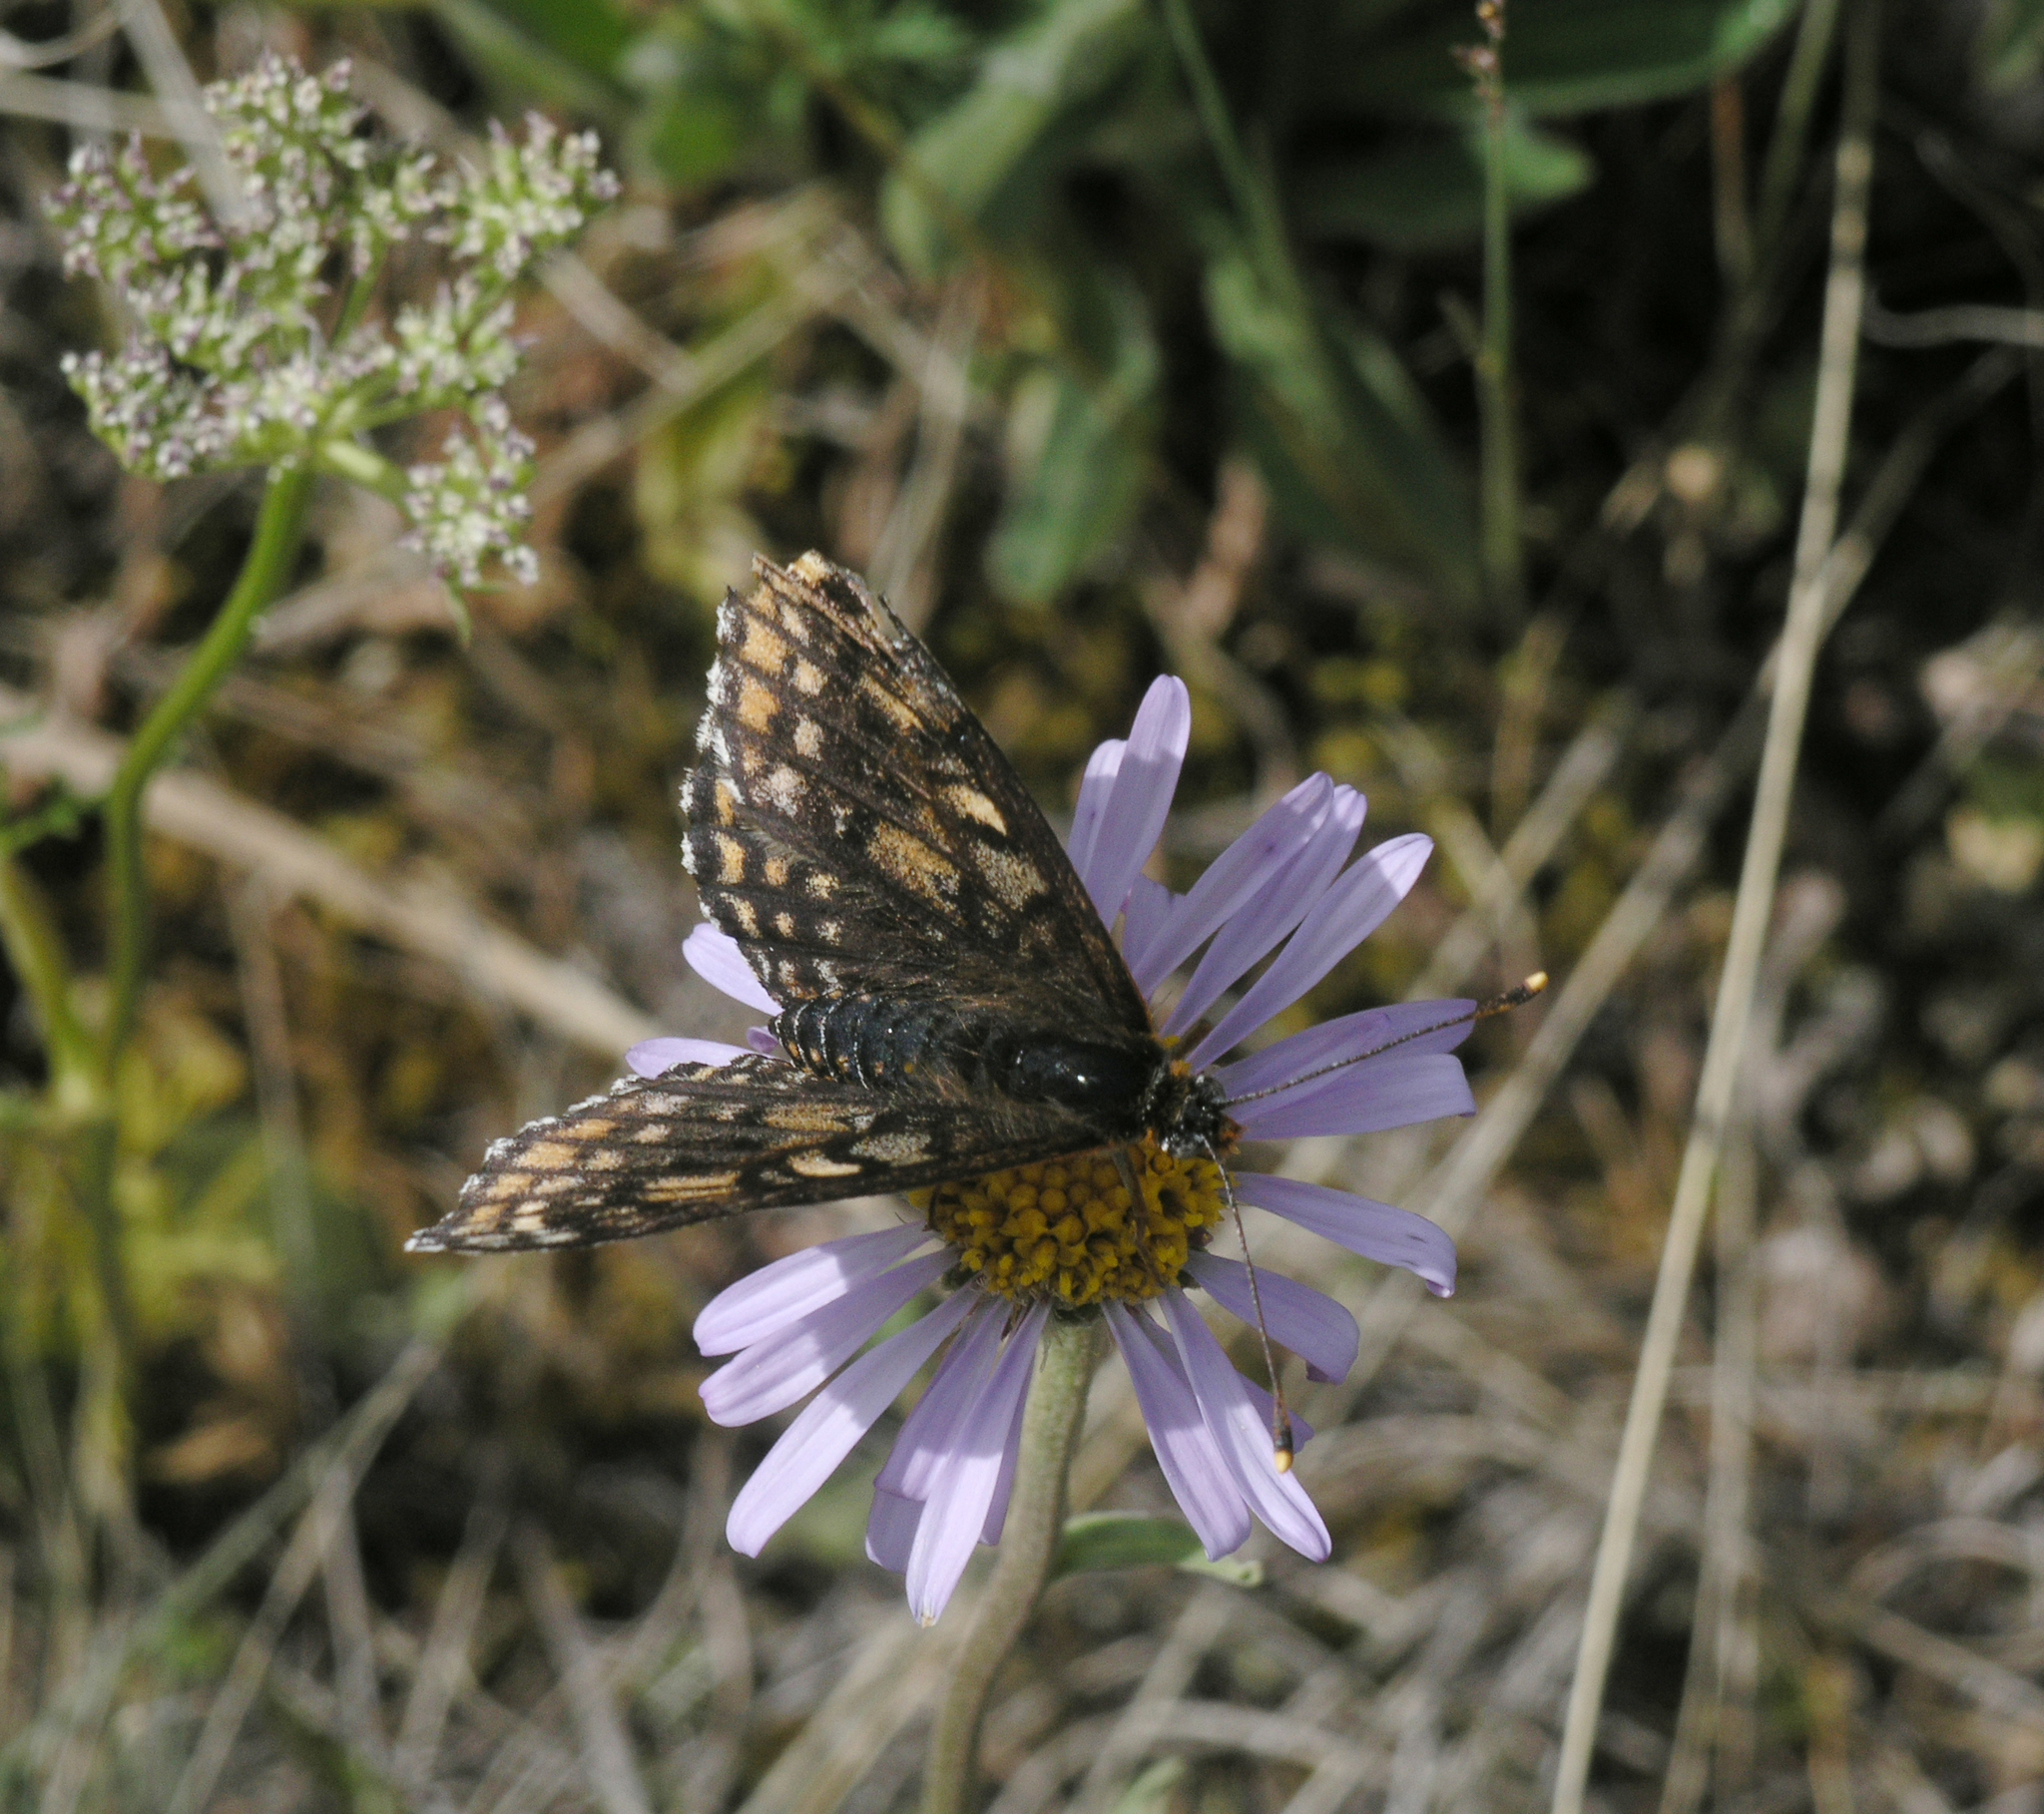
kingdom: Animalia
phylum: Arthropoda
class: Insecta
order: Lepidoptera
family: Nymphalidae
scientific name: Nymphalidae
